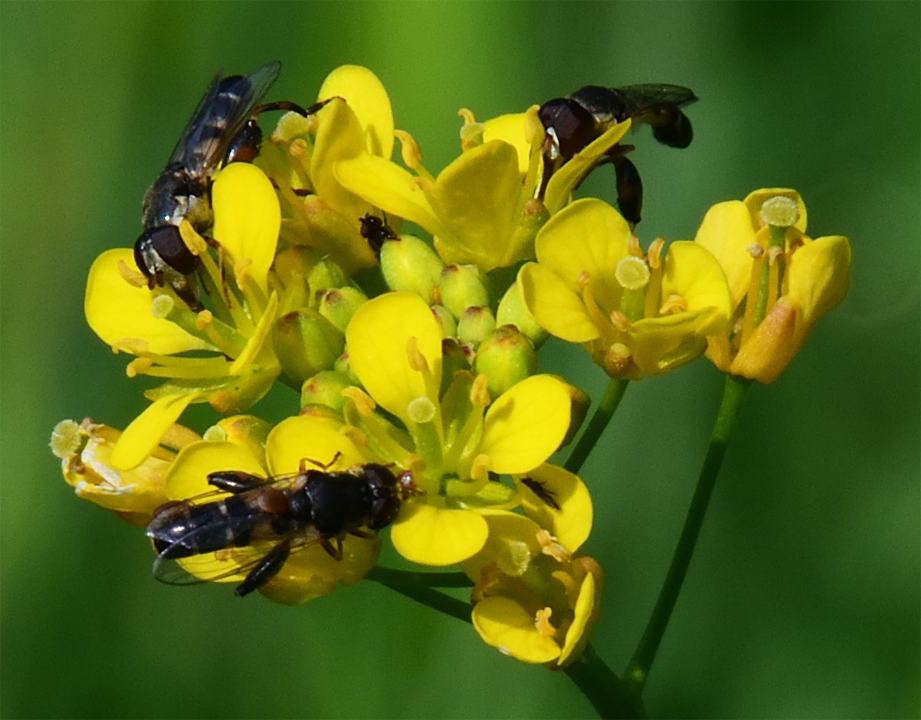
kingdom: Animalia
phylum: Arthropoda
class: Insecta
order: Diptera
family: Syrphidae
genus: Syritta
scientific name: Syritta pipiens
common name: Hover fly
